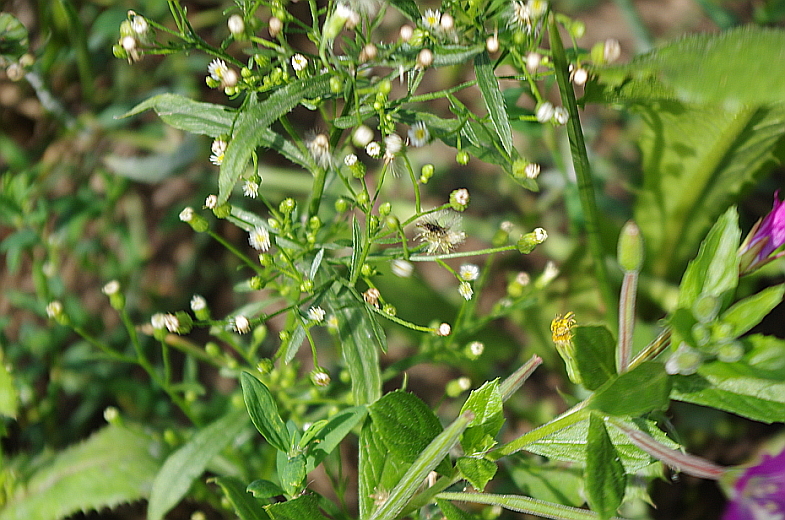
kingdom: Plantae
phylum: Tracheophyta
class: Magnoliopsida
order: Asterales
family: Asteraceae
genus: Erigeron
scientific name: Erigeron canadensis
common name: Canadian fleabane
